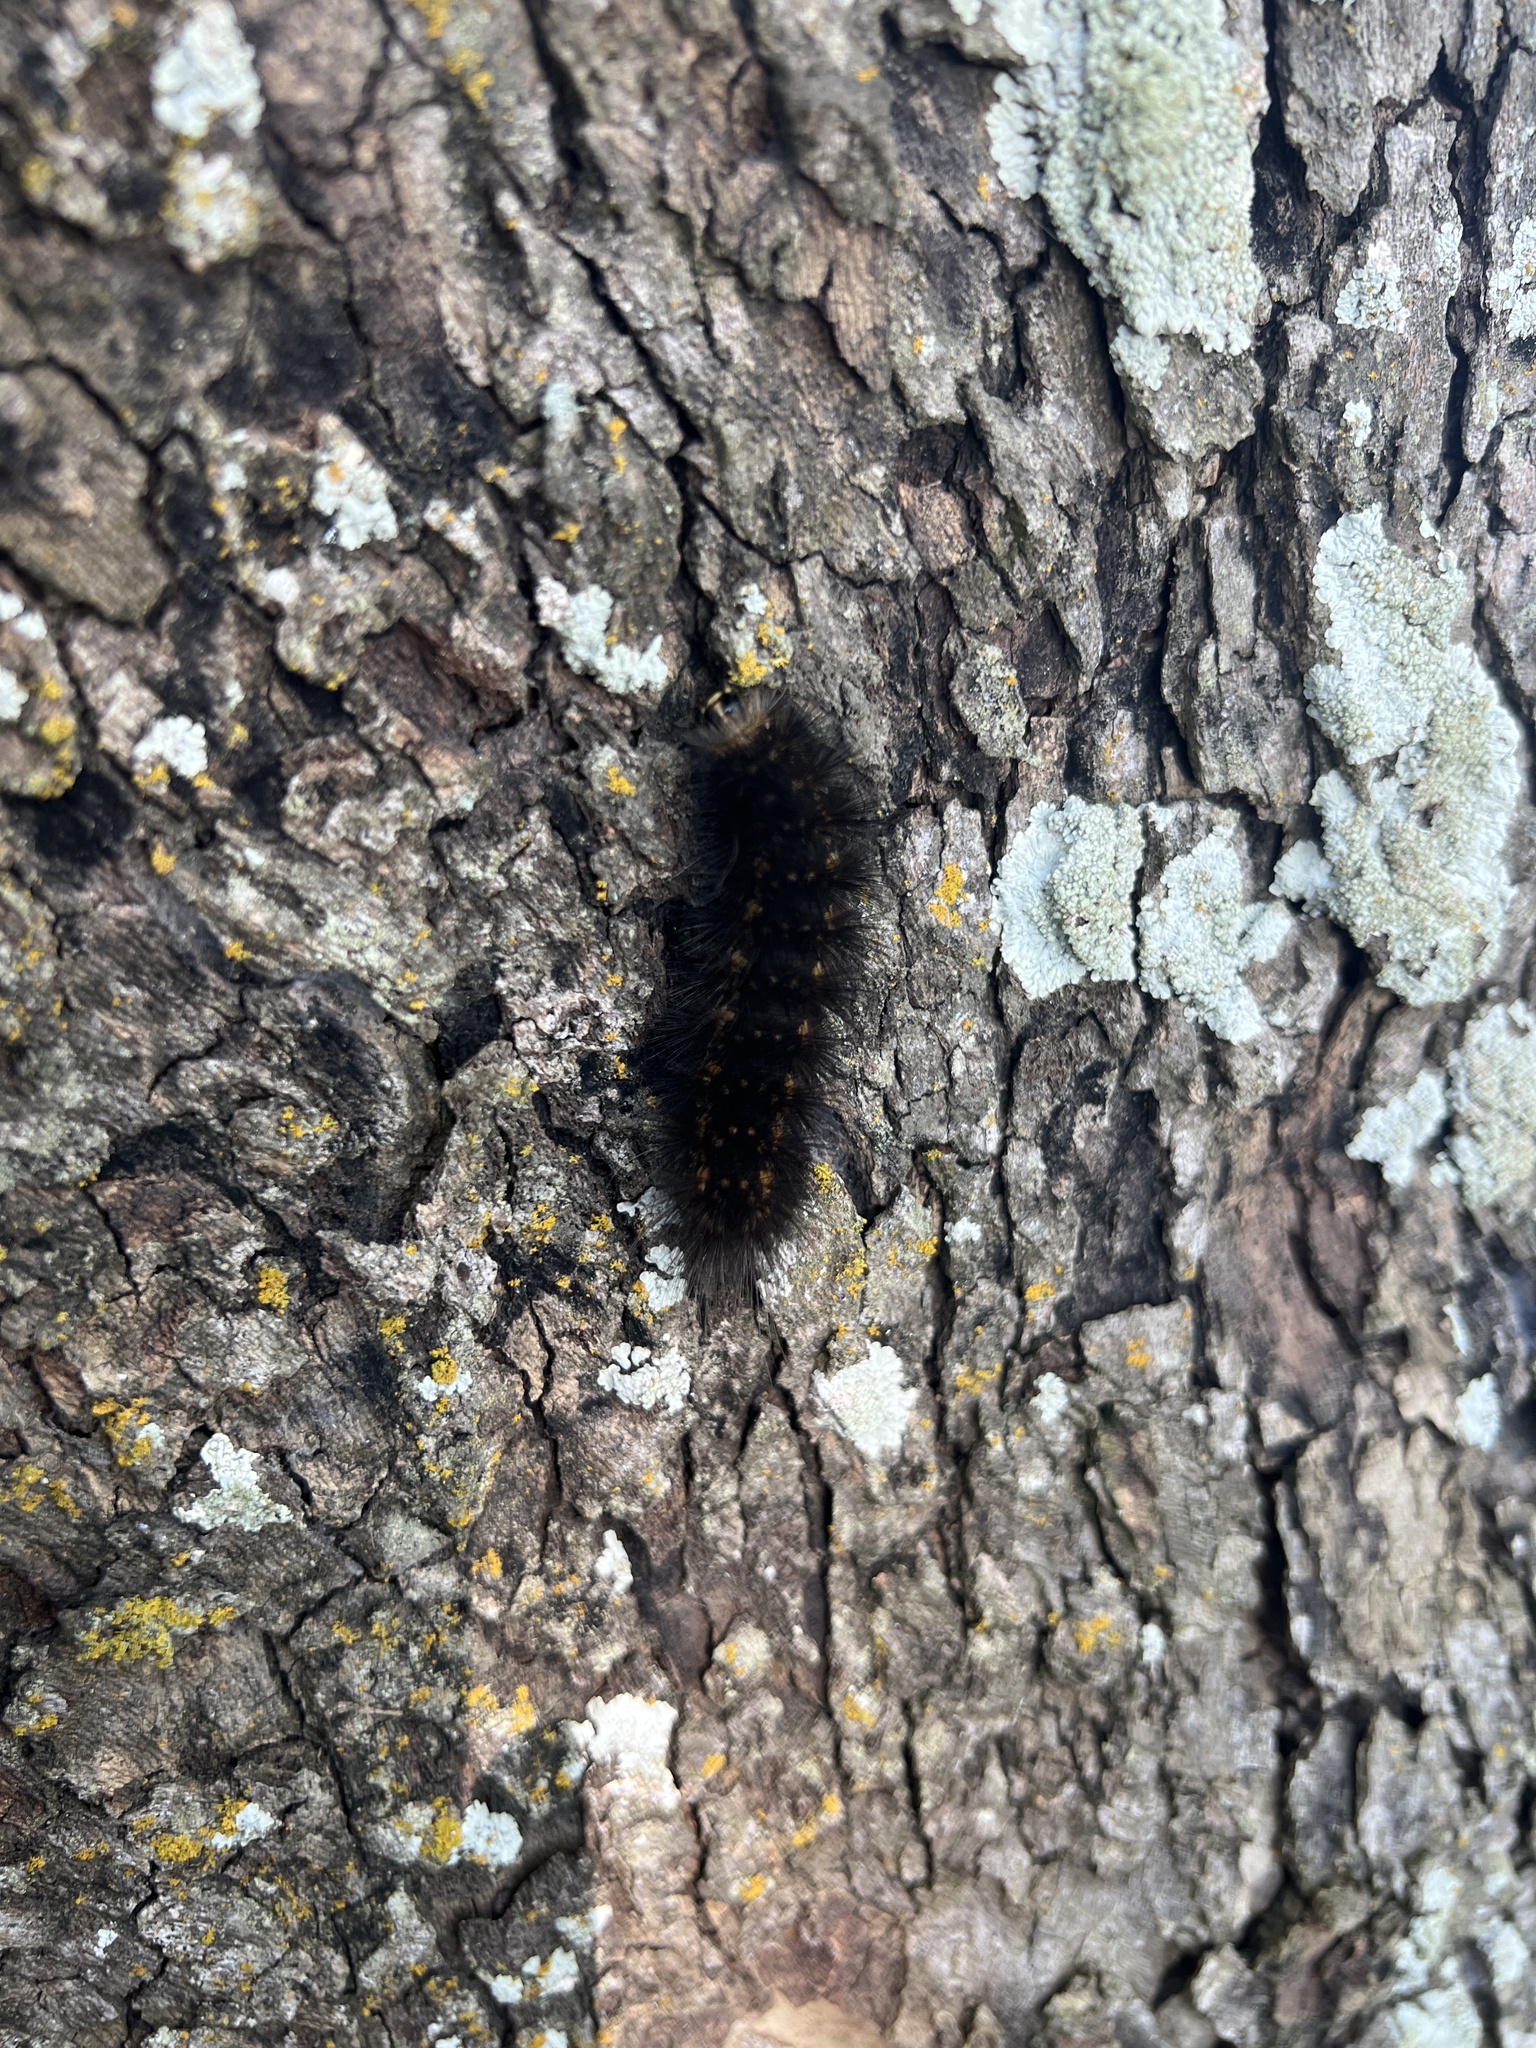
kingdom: Animalia
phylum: Arthropoda
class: Insecta
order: Lepidoptera
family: Erebidae
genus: Estigmene
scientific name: Estigmene acrea
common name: Salt marsh moth
